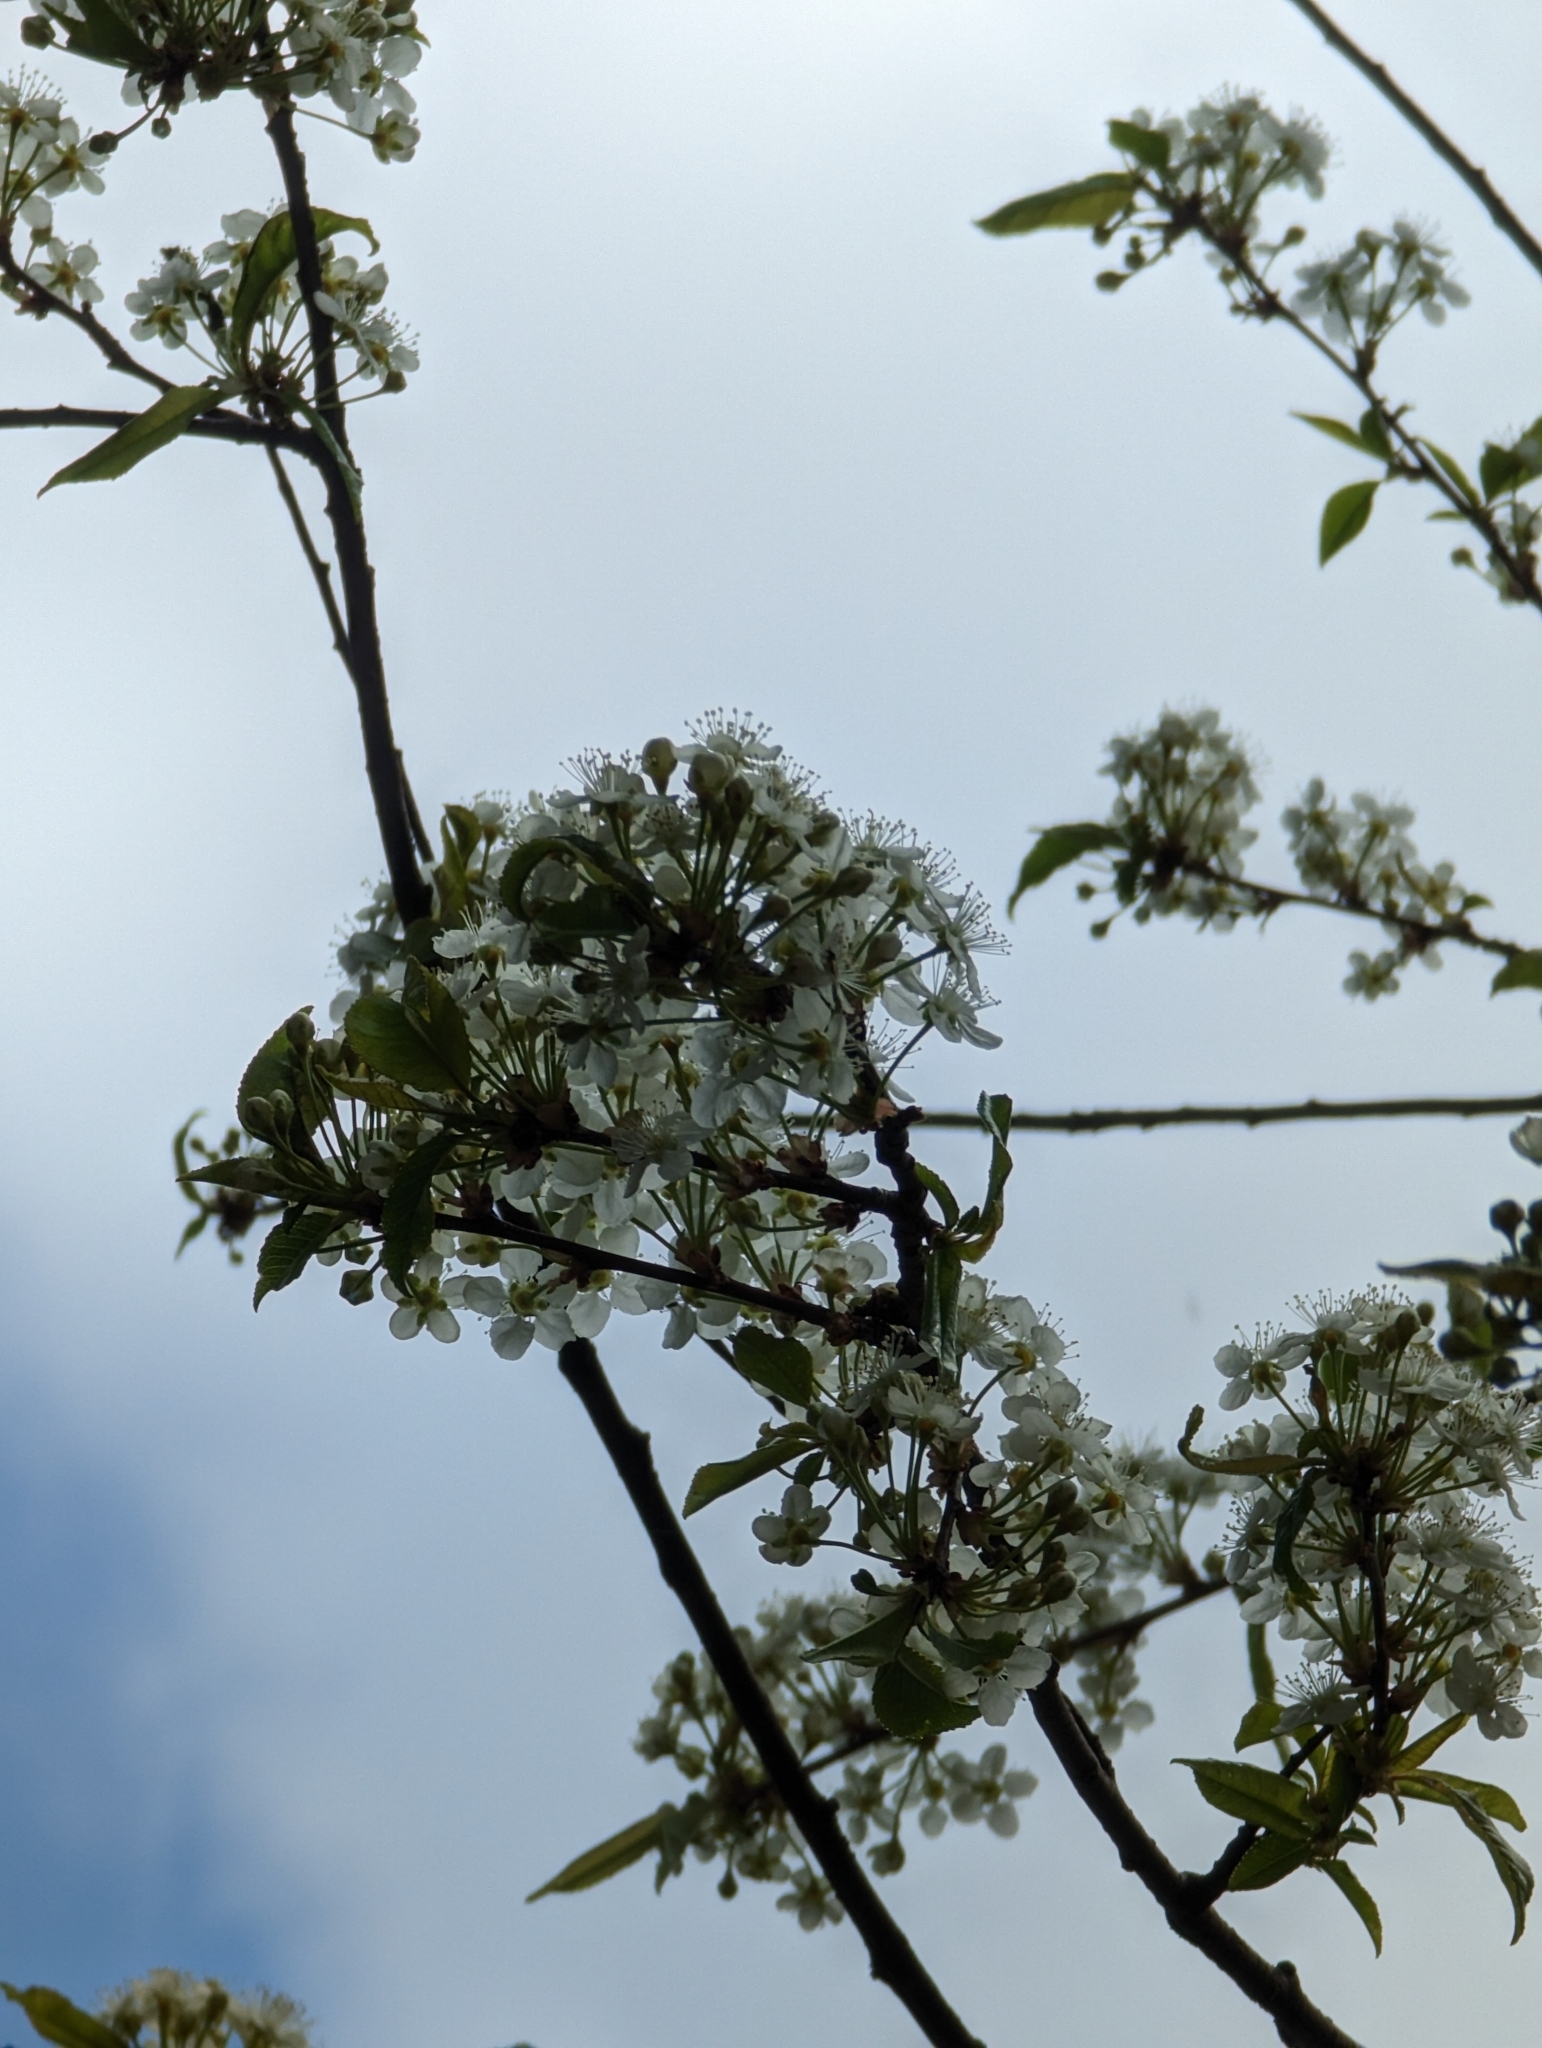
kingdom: Plantae
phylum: Tracheophyta
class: Magnoliopsida
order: Rosales
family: Rosaceae
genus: Prunus
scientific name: Prunus pensylvanica
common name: Pin cherry
